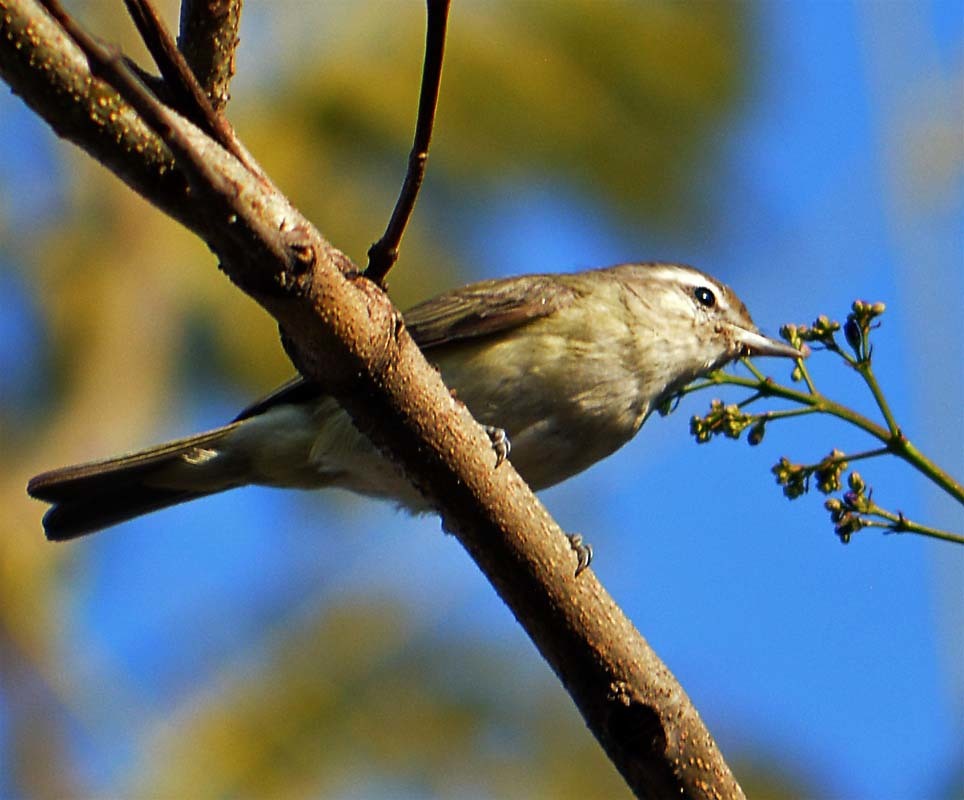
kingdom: Animalia
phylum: Chordata
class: Aves
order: Passeriformes
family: Vireonidae
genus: Vireo
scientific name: Vireo gilvus
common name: Warbling vireo
